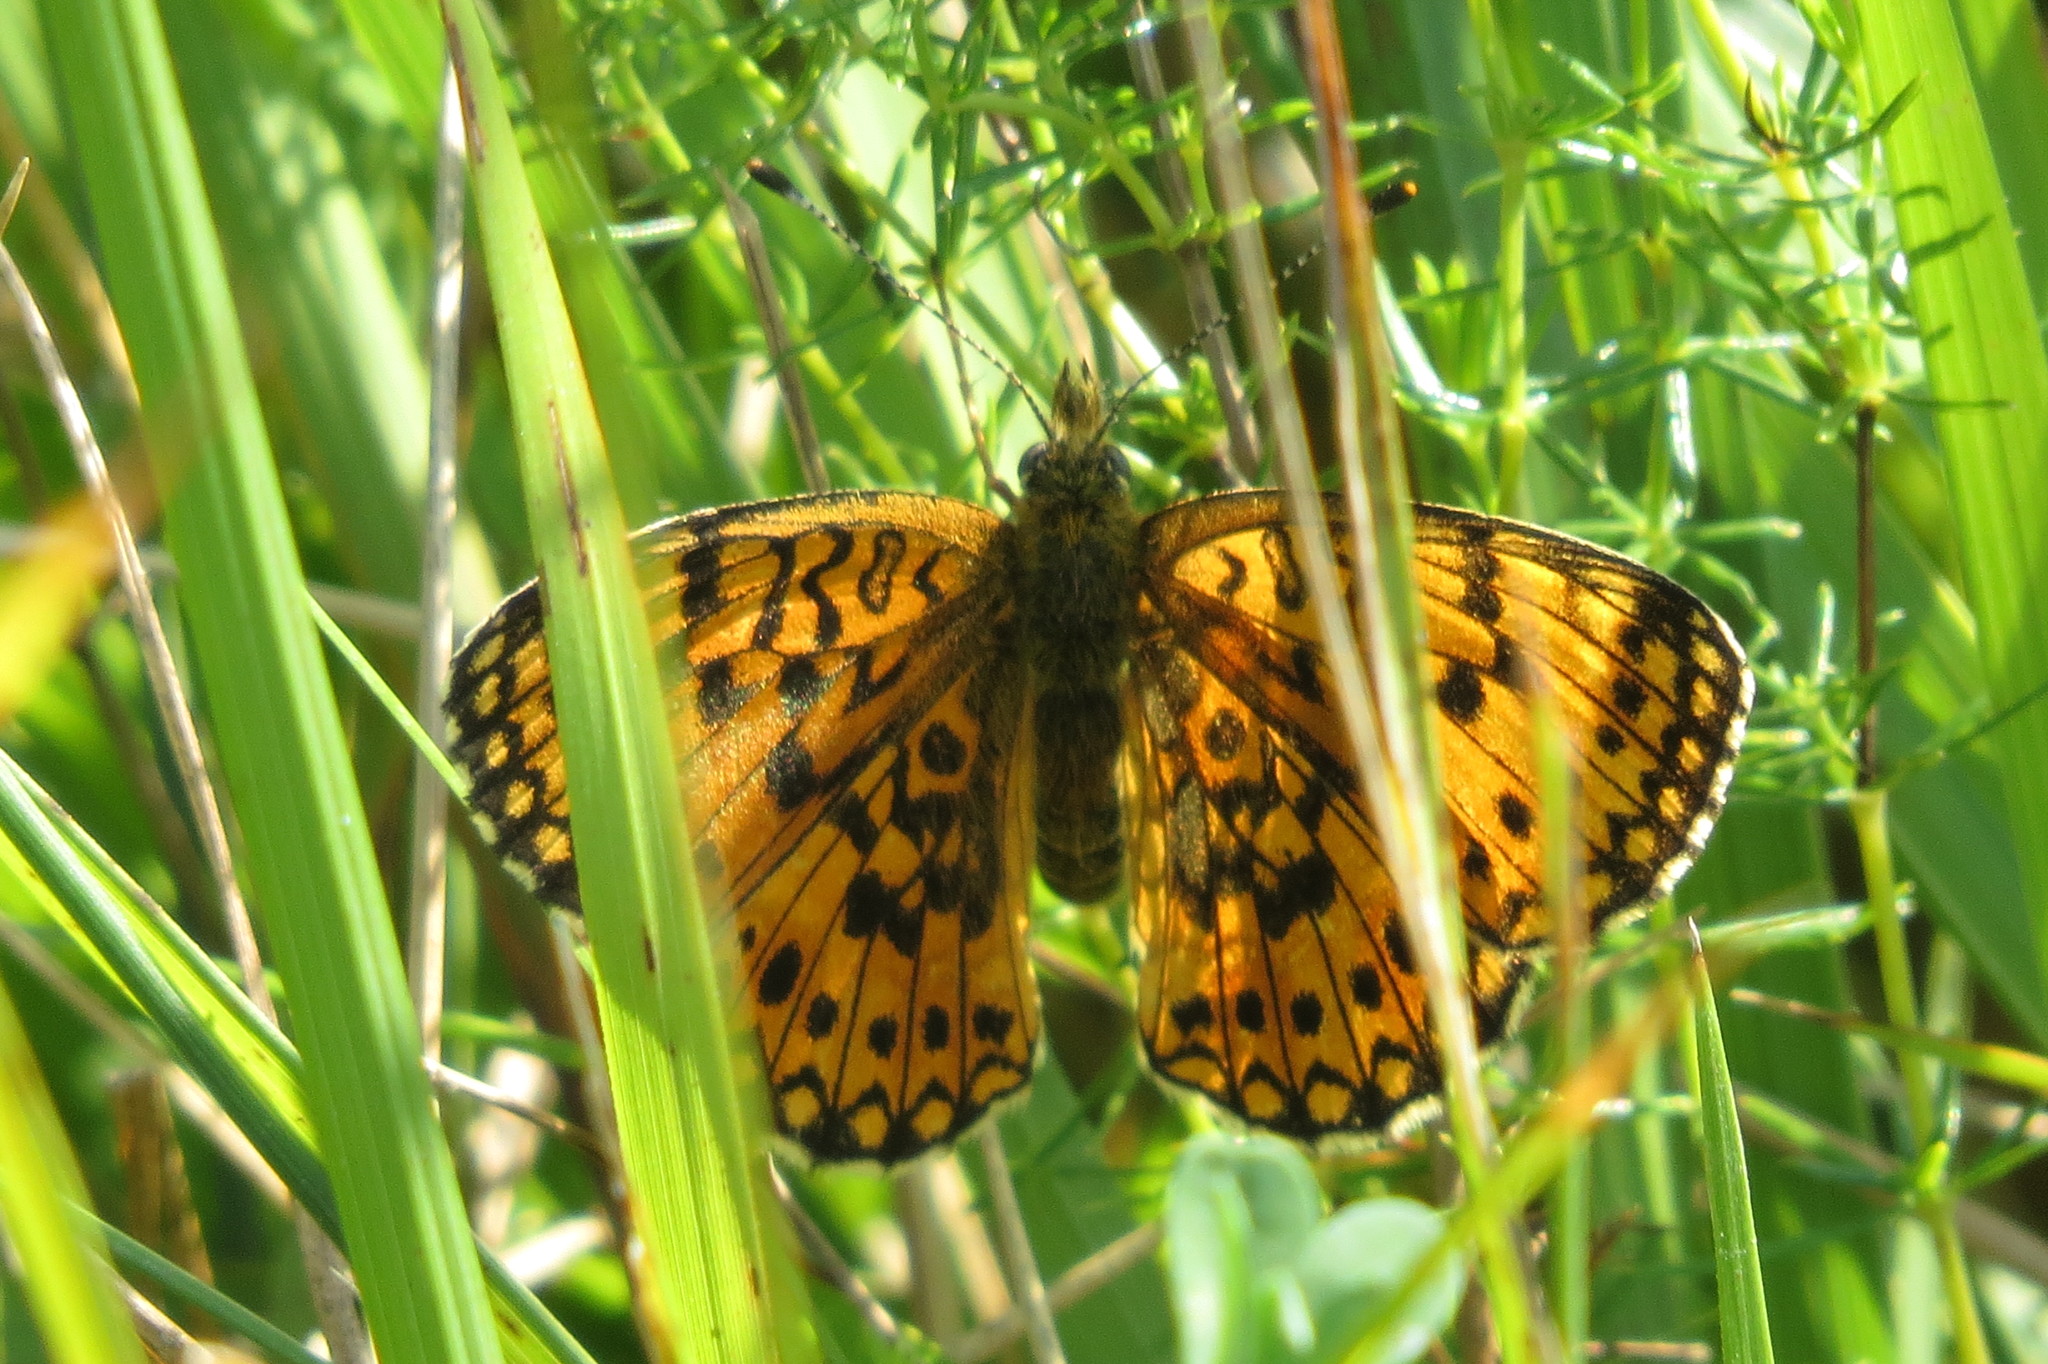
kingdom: Animalia
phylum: Arthropoda
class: Insecta
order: Lepidoptera
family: Nymphalidae
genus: Boloria
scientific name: Boloria selene
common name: Small pearl-bordered fritillary
